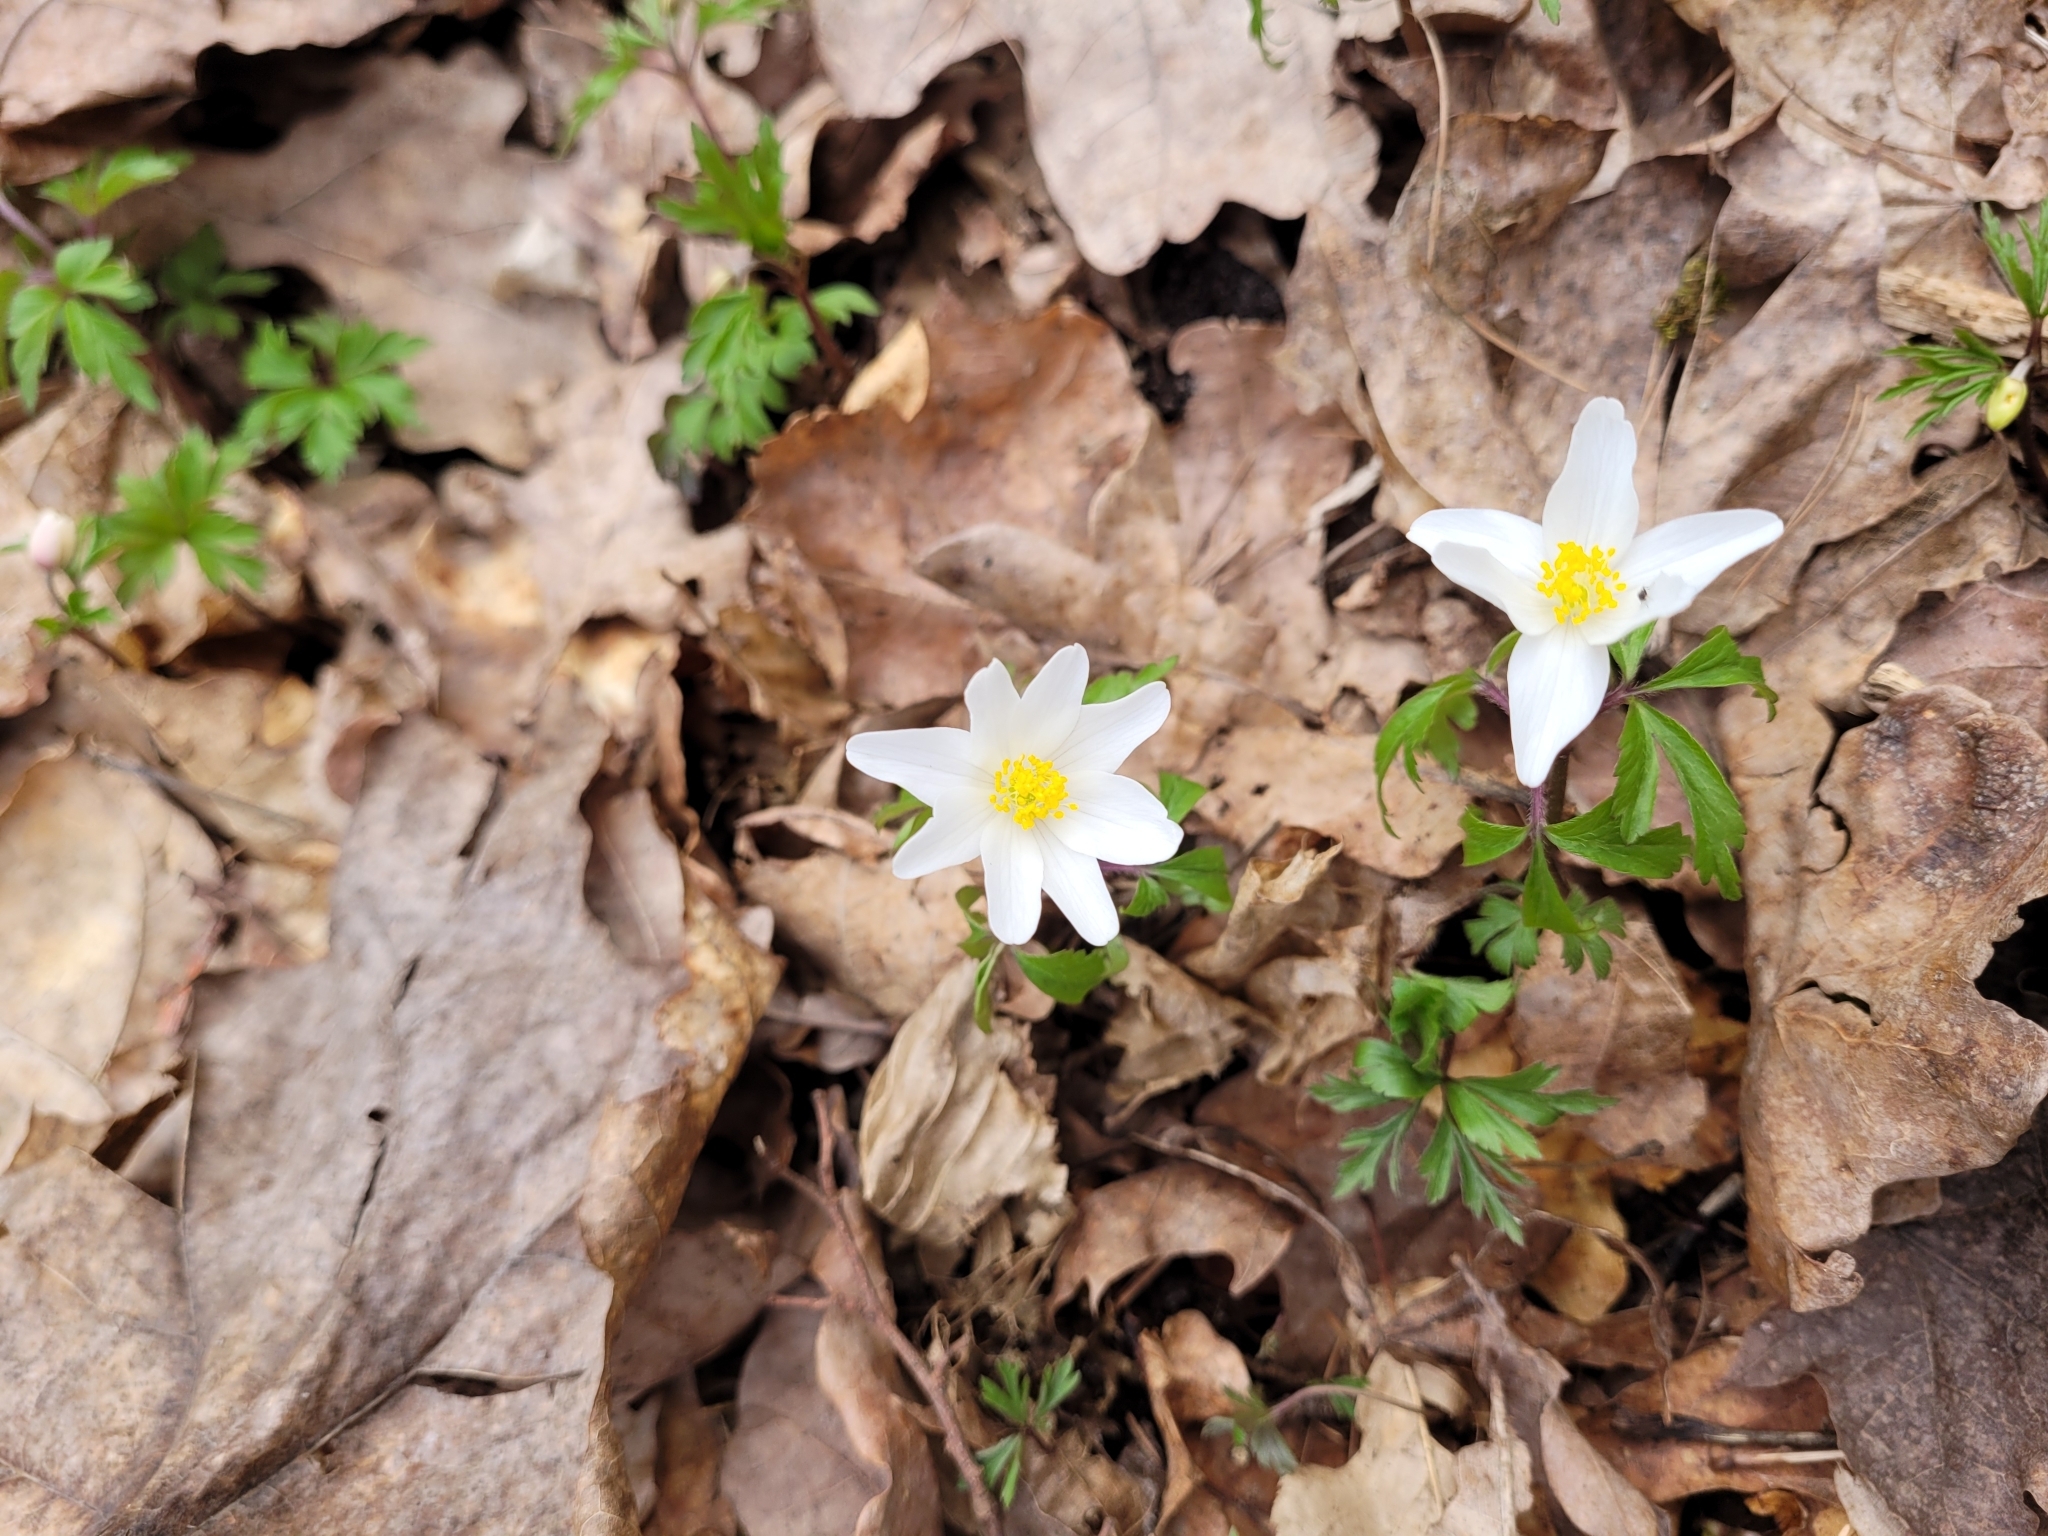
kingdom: Plantae
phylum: Tracheophyta
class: Magnoliopsida
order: Ranunculales
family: Ranunculaceae
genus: Anemone
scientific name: Anemone nemorosa
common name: Wood anemone
